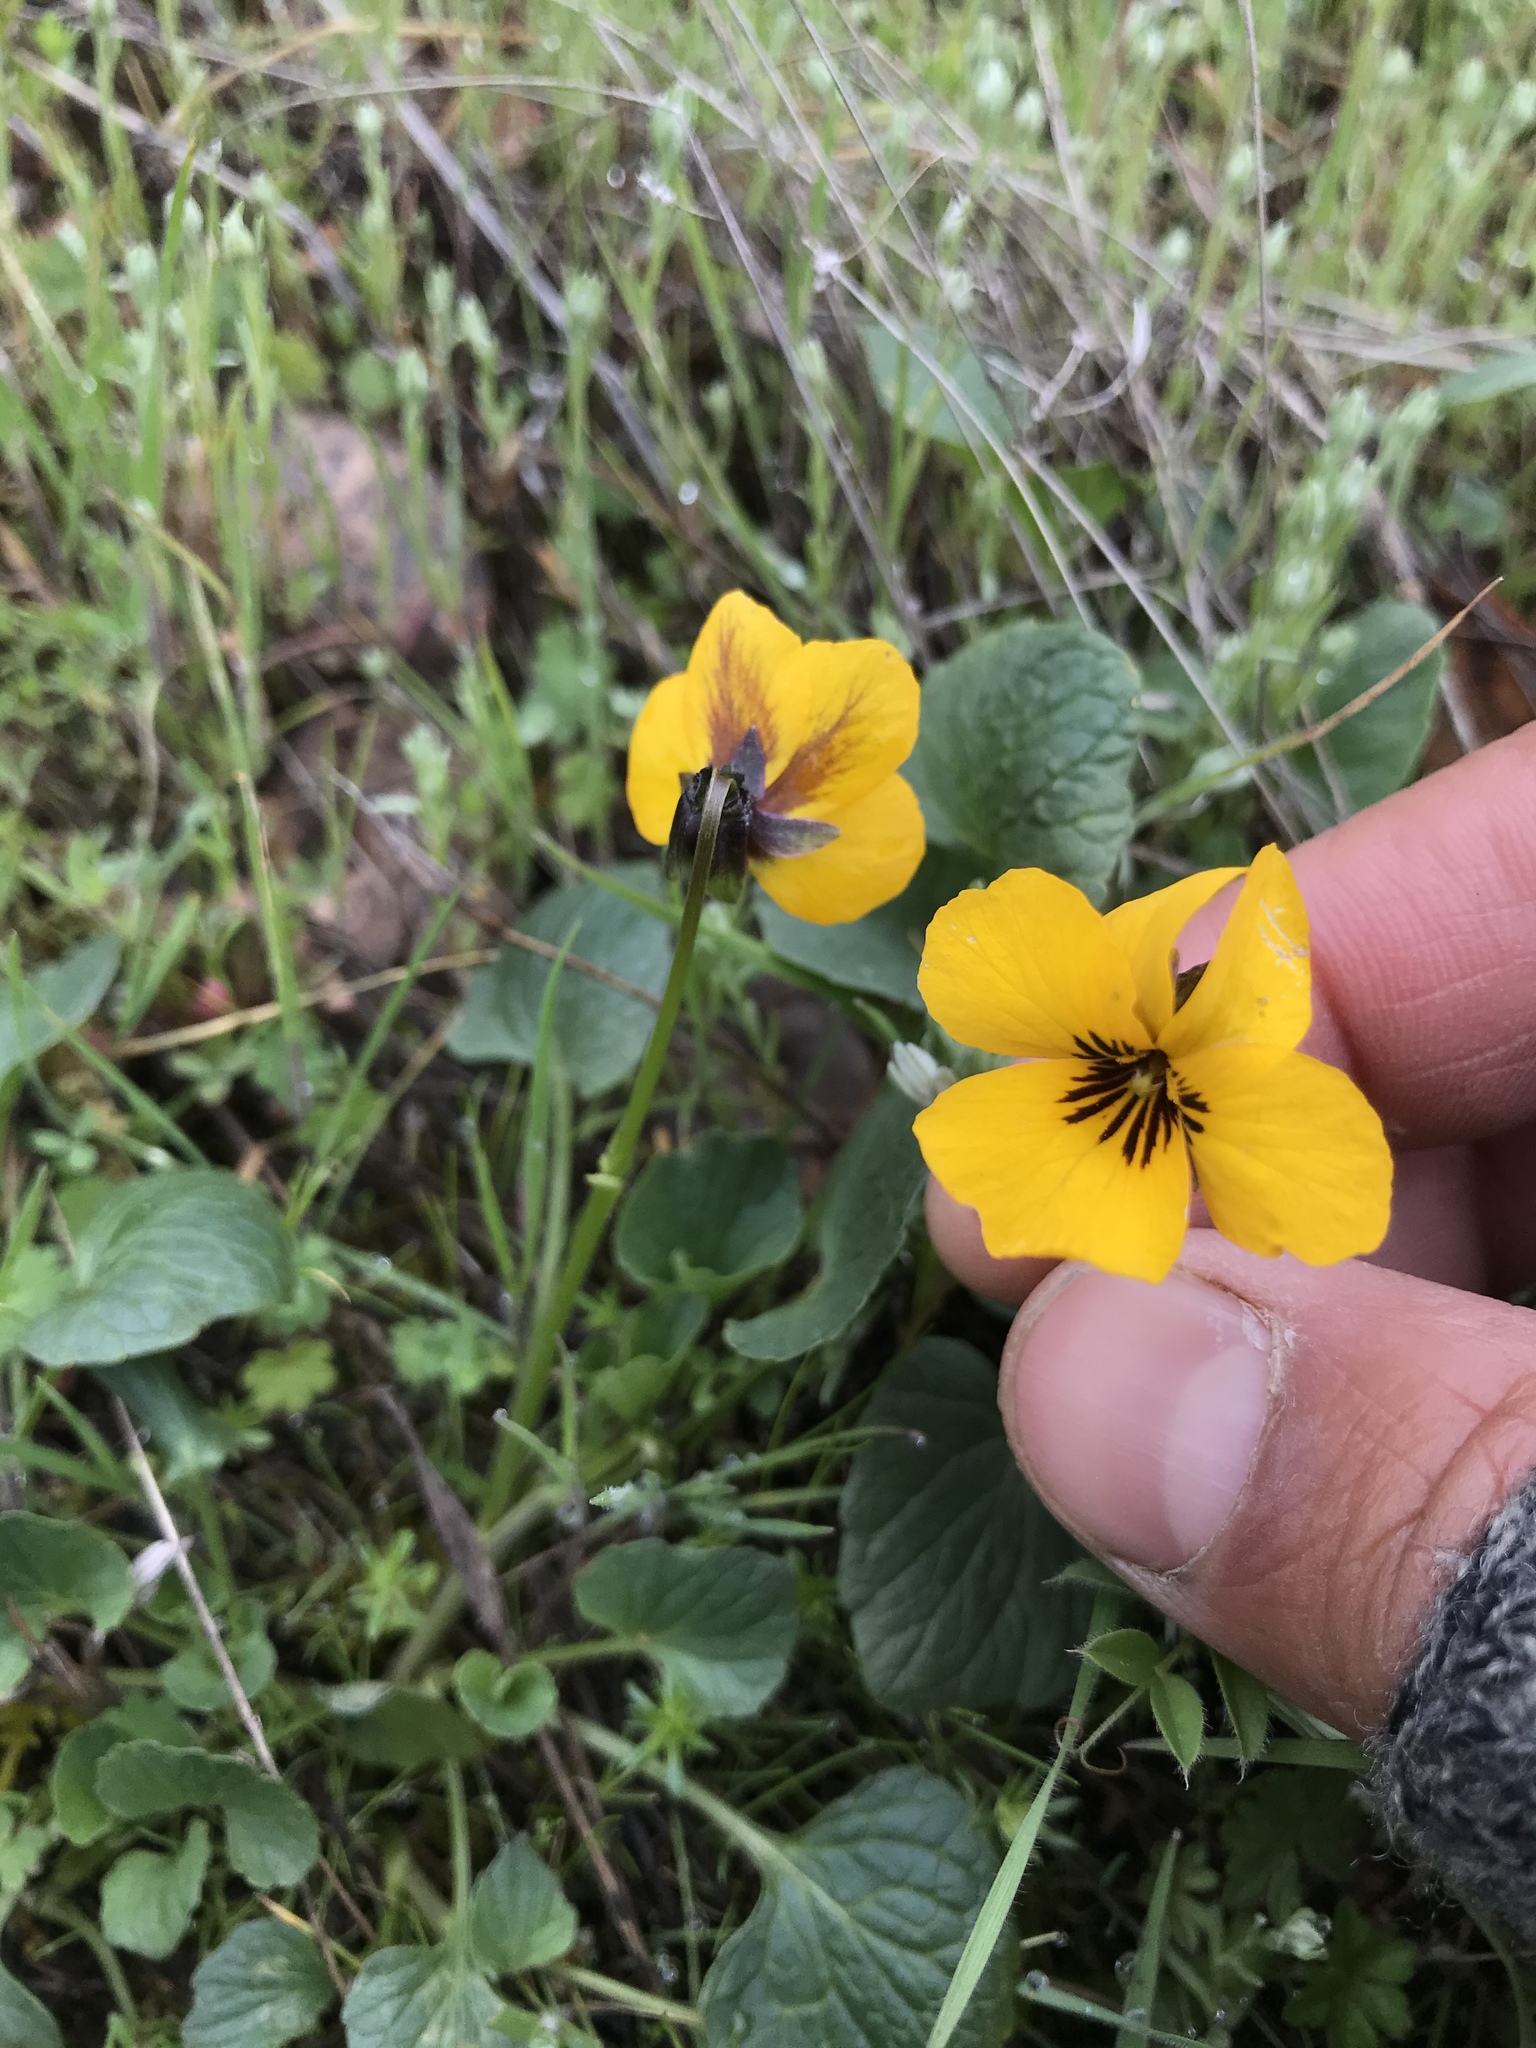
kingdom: Plantae
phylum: Tracheophyta
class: Magnoliopsida
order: Malpighiales
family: Violaceae
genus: Viola
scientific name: Viola pedunculata
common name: California golden violet
